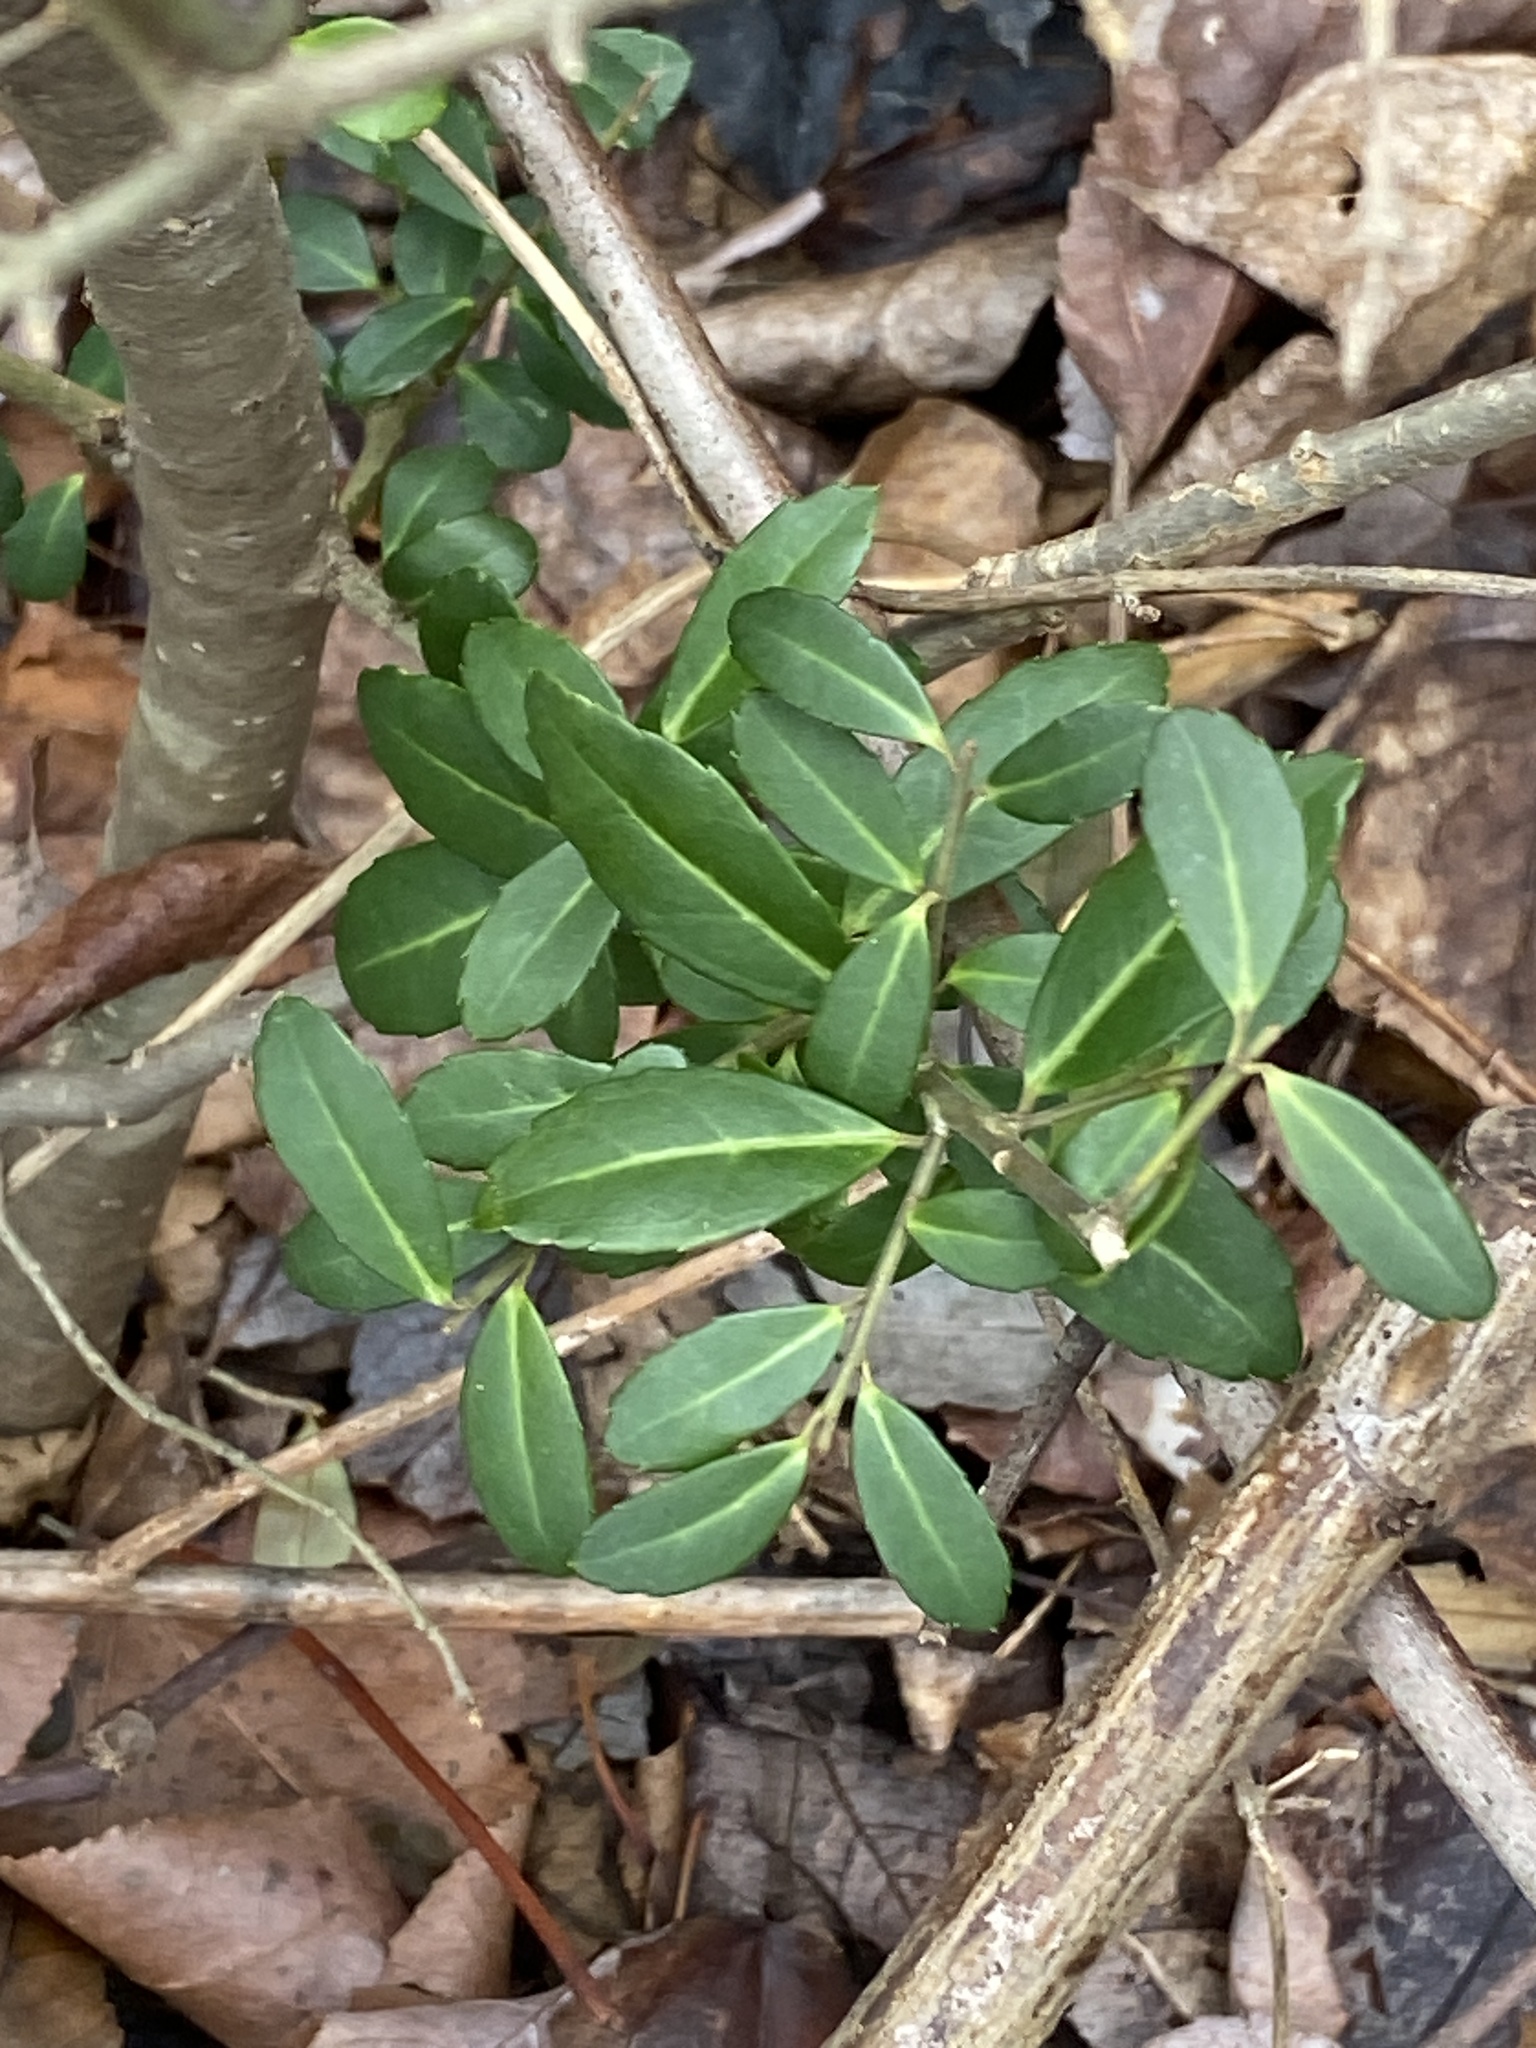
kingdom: Plantae
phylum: Tracheophyta
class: Magnoliopsida
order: Aquifoliales
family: Aquifoliaceae
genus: Ilex
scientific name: Ilex crenata
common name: Japanese holly
